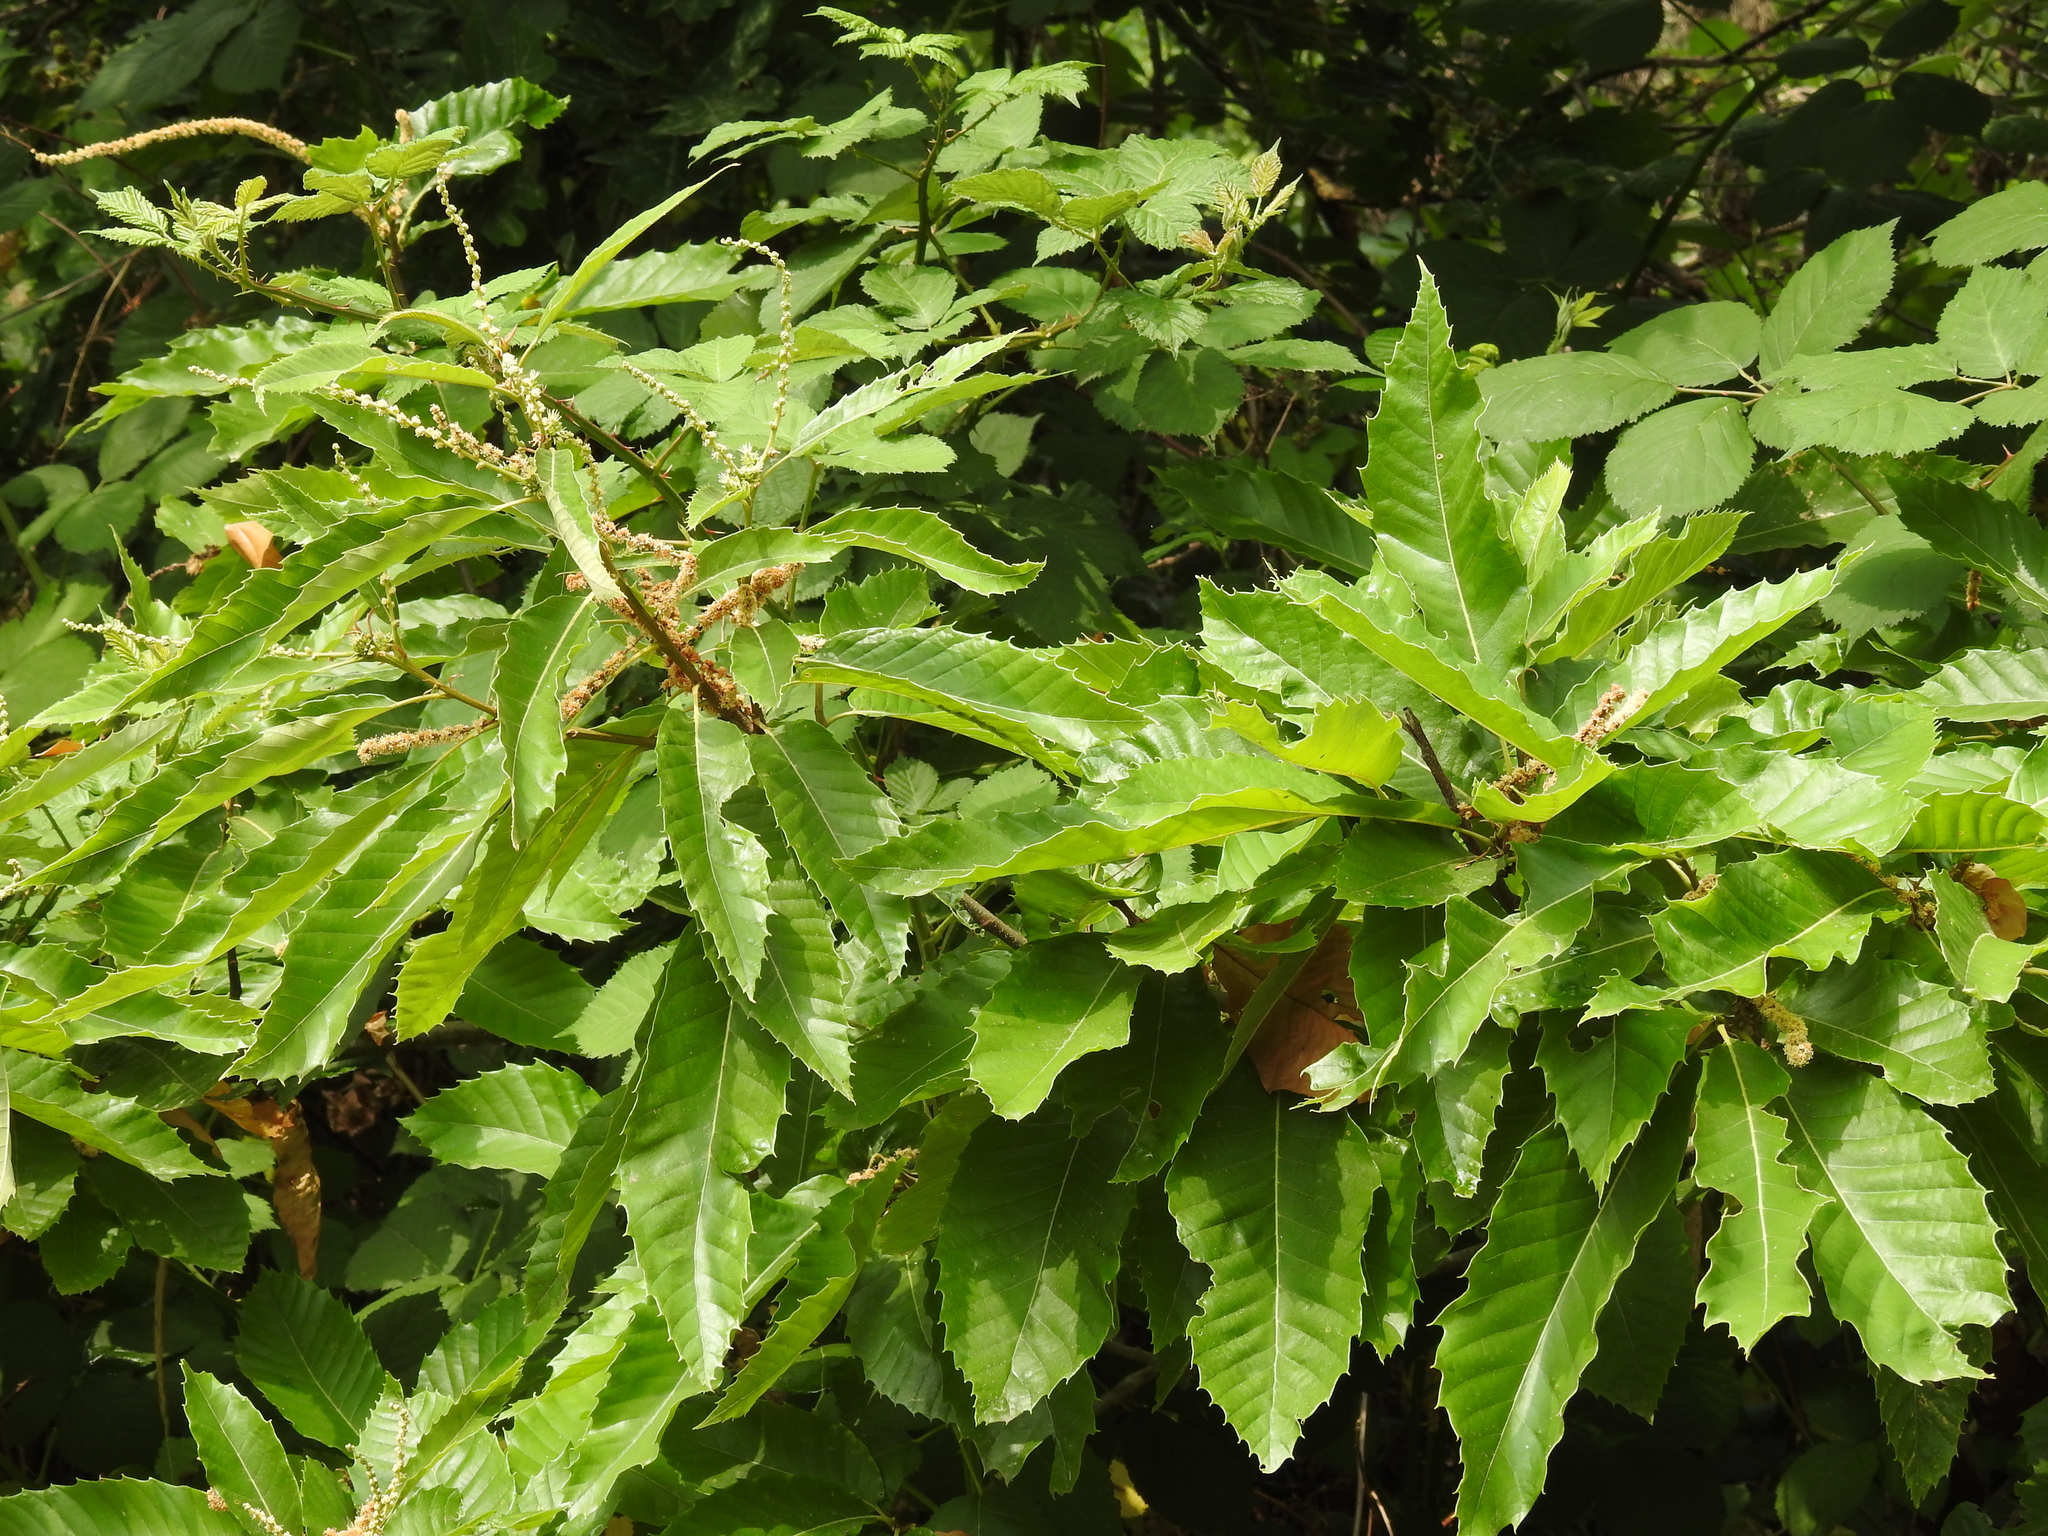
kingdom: Plantae
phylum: Tracheophyta
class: Magnoliopsida
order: Fagales
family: Fagaceae
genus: Castanea
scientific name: Castanea sativa
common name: Sweet chestnut
